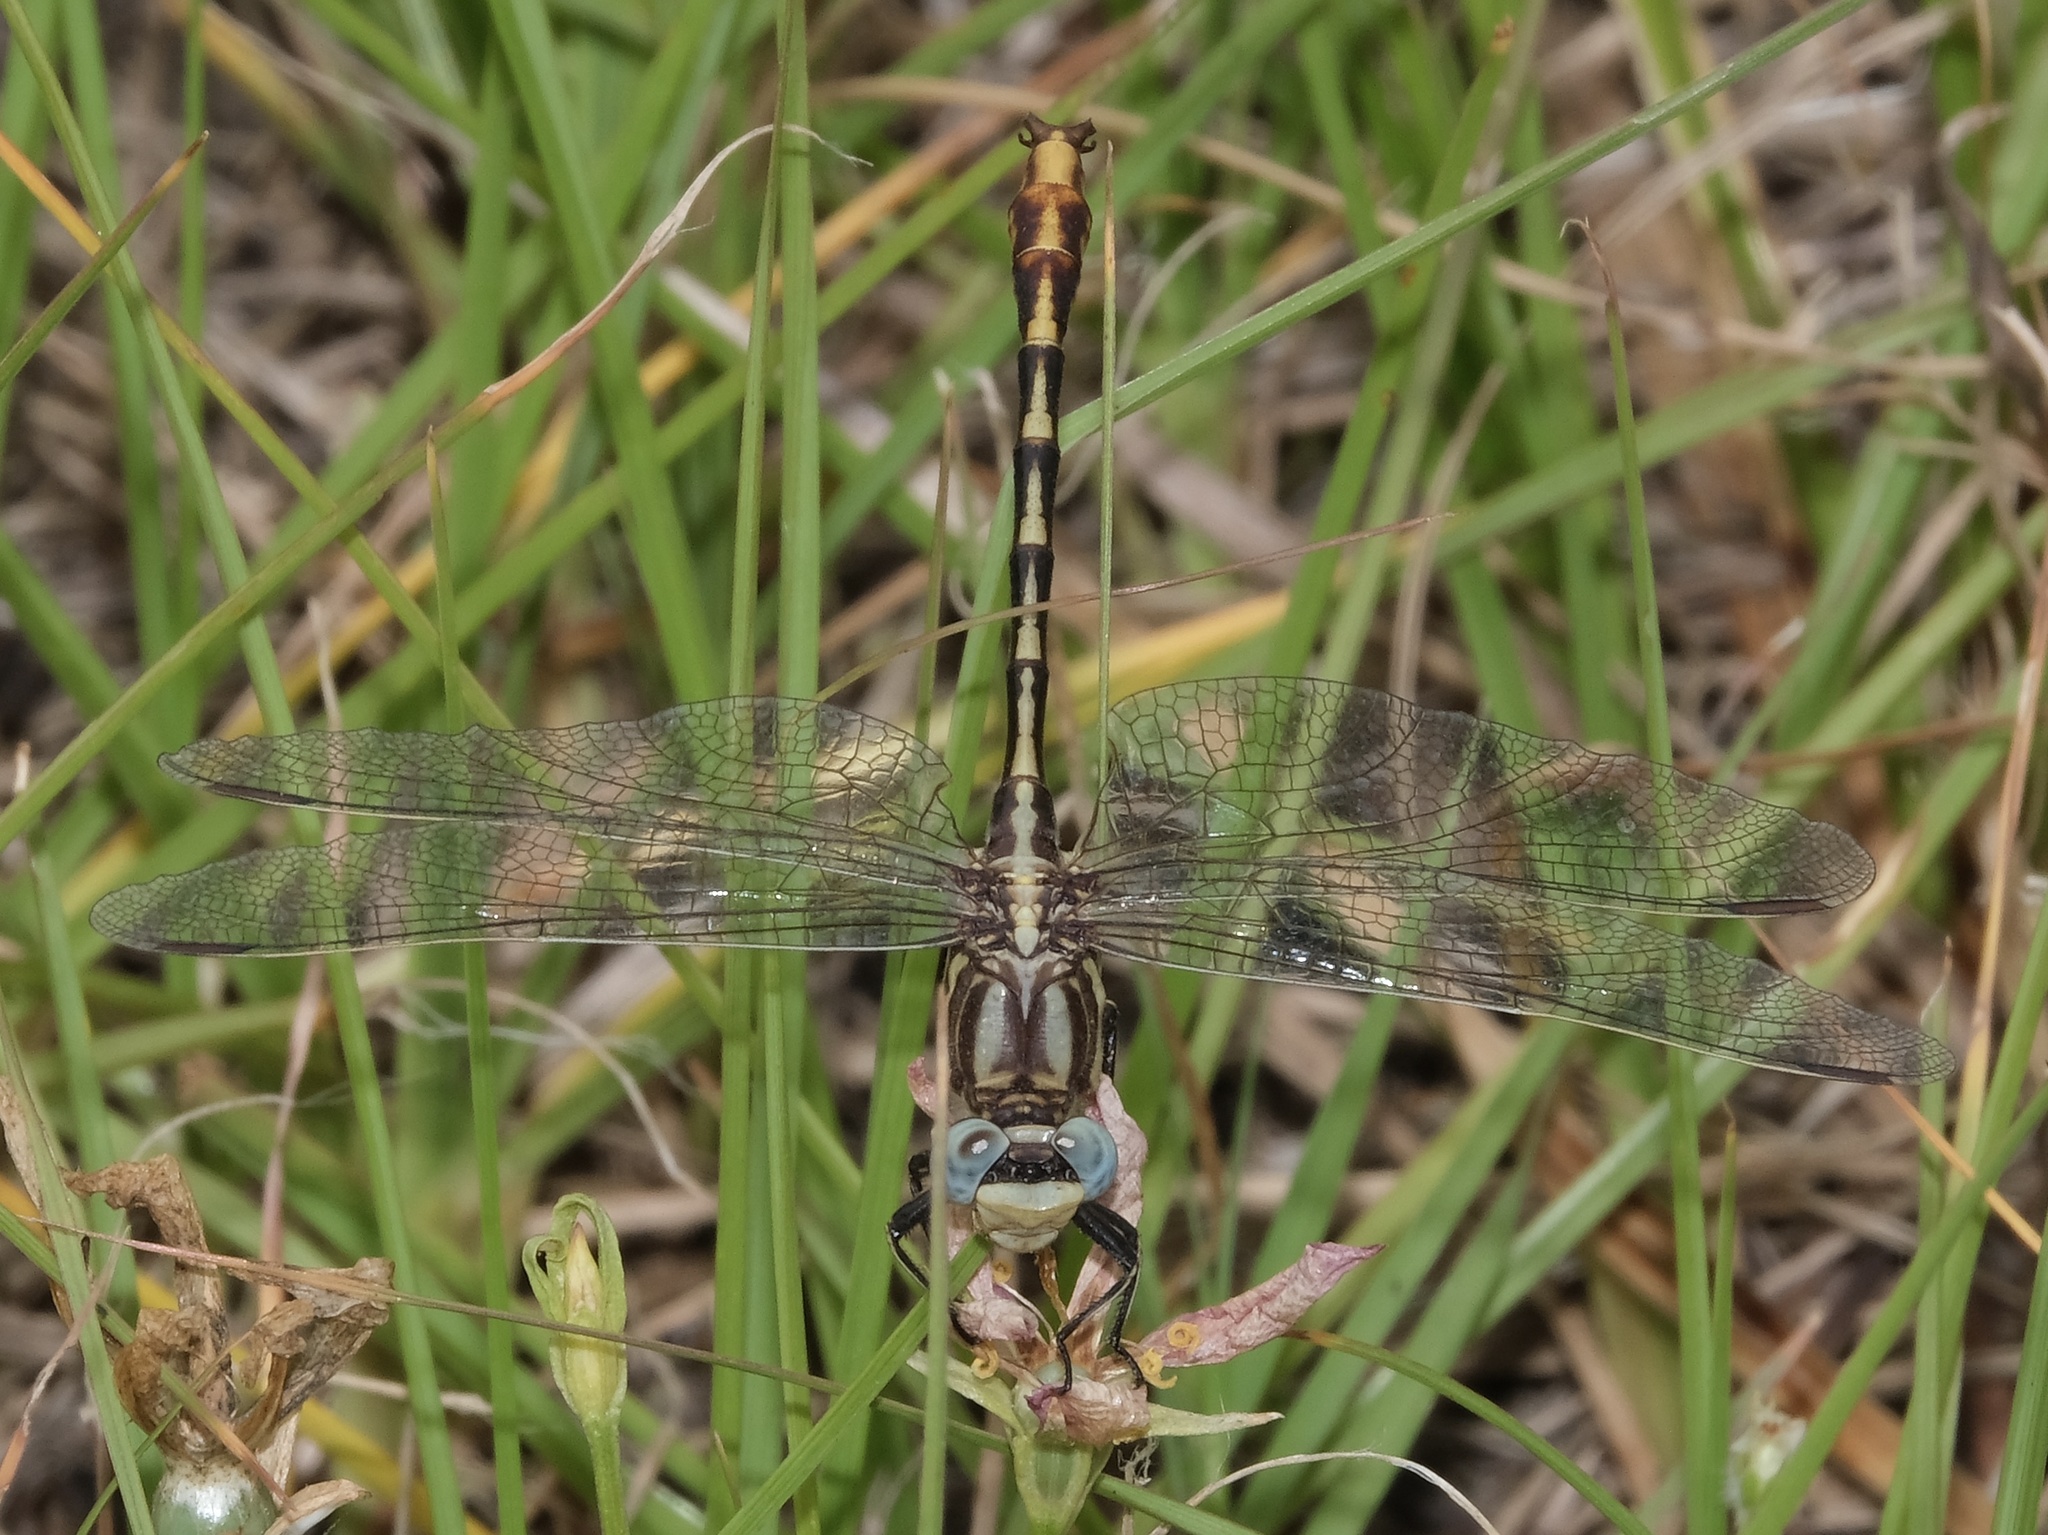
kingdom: Animalia
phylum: Arthropoda
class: Insecta
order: Odonata
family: Gomphidae
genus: Phanogomphus
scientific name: Phanogomphus militaris
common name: Sulphur-tipped clubtail
